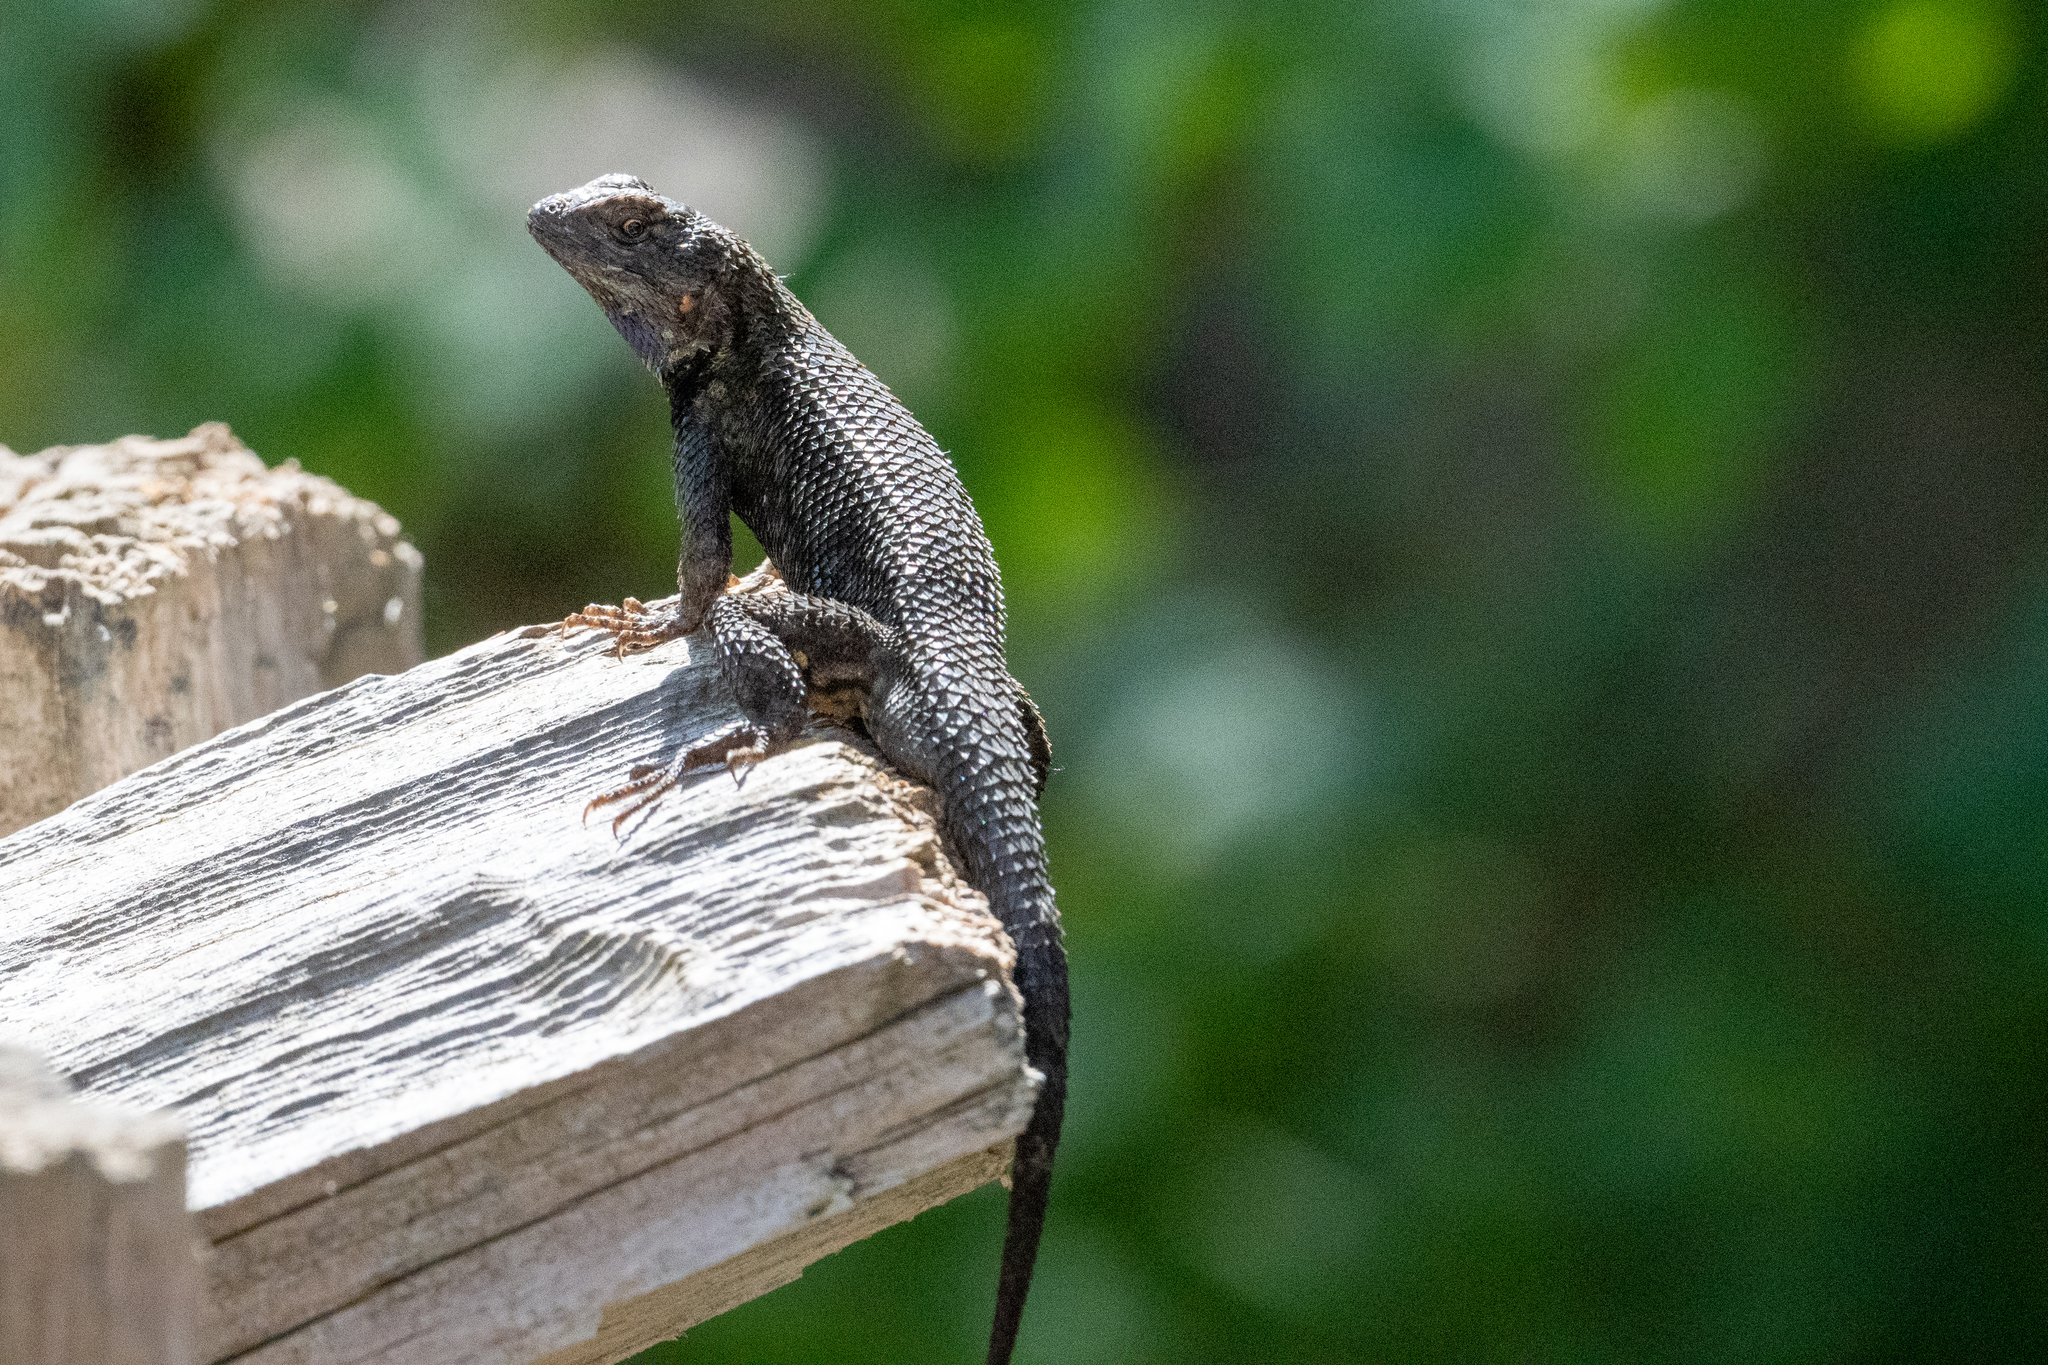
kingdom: Animalia
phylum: Chordata
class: Squamata
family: Phrynosomatidae
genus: Sceloporus
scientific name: Sceloporus occidentalis
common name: Western fence lizard
